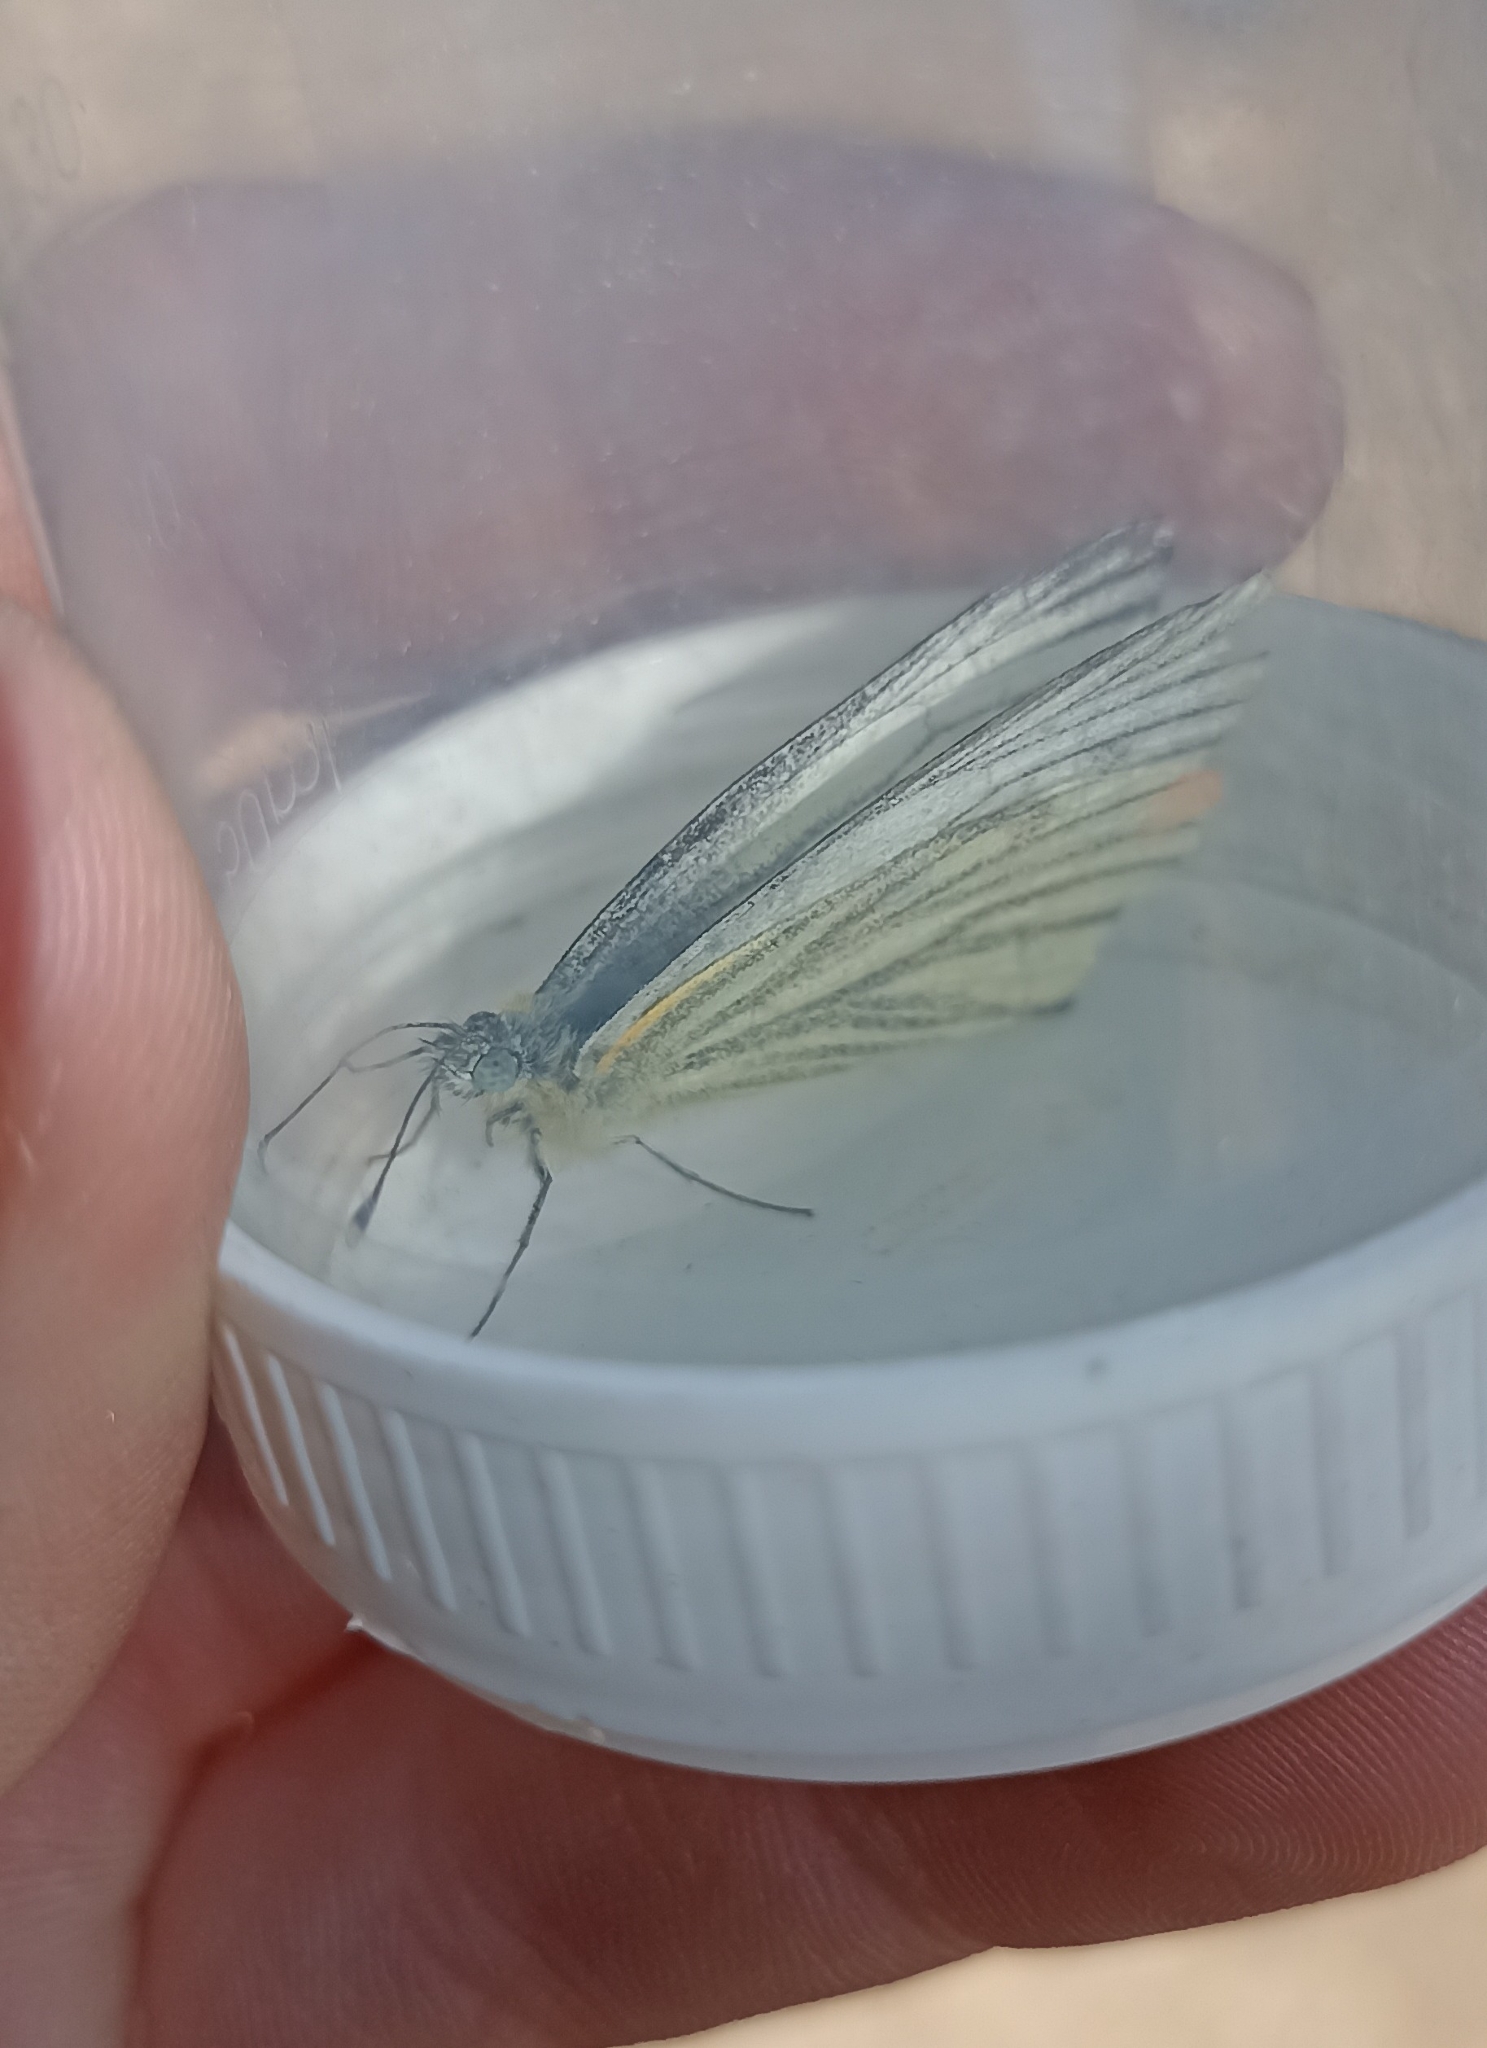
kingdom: Animalia
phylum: Arthropoda
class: Insecta
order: Lepidoptera
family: Pieridae
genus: Pieris
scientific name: Pieris napi
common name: Green-veined white
